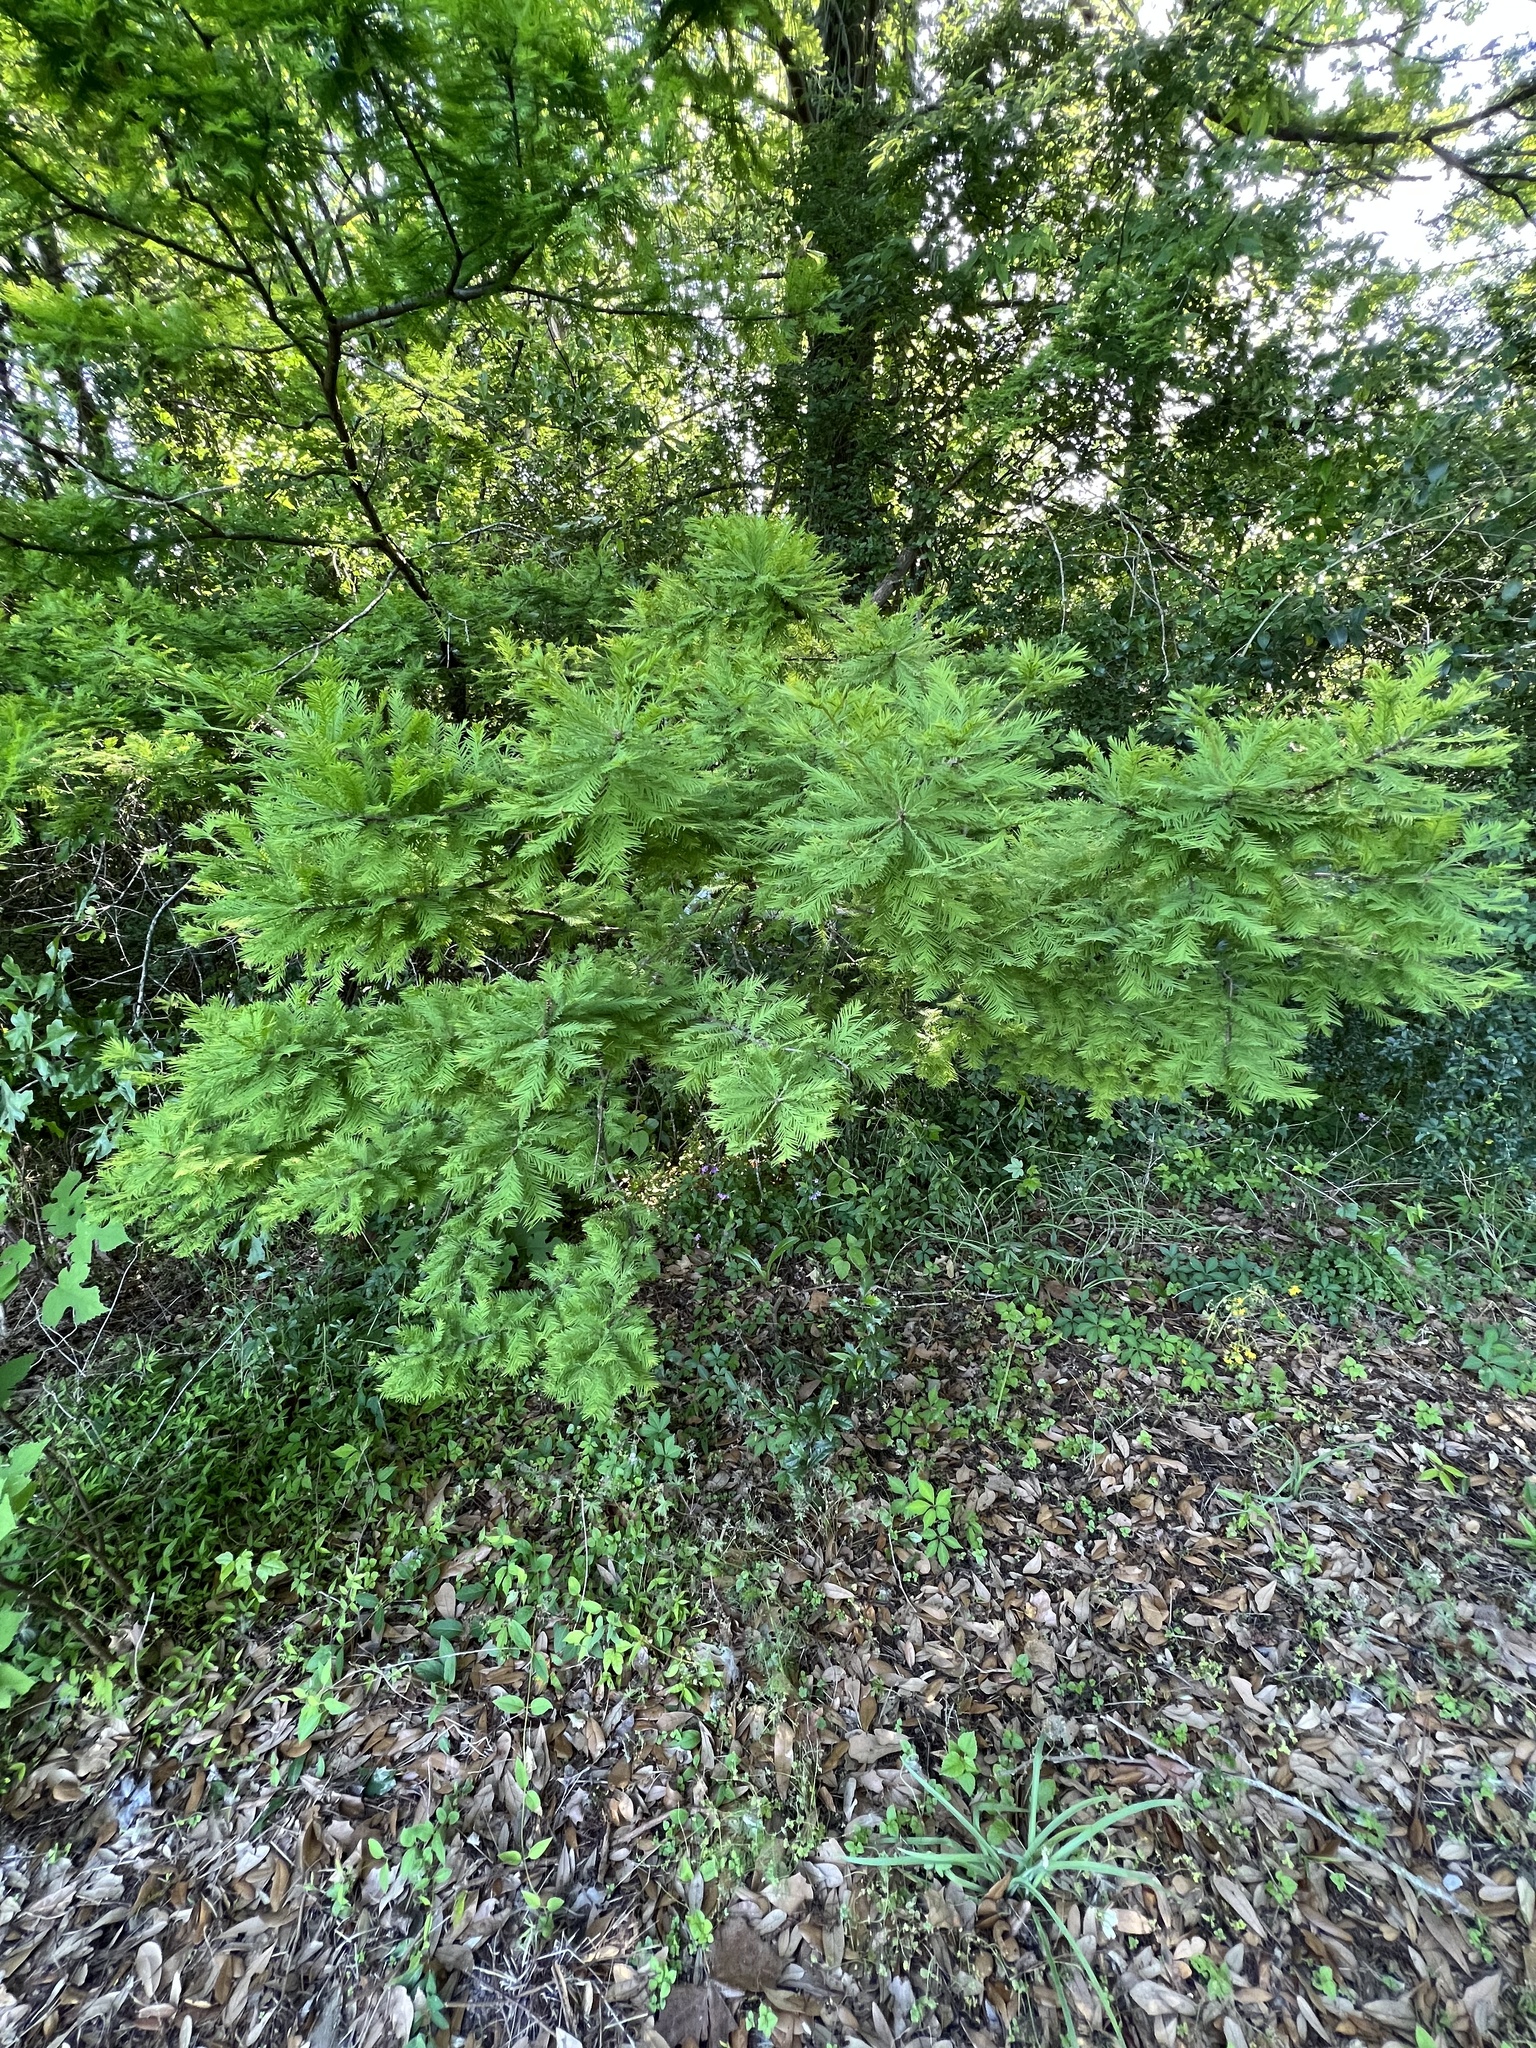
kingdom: Plantae
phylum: Tracheophyta
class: Pinopsida
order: Pinales
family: Cupressaceae
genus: Taxodium
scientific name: Taxodium distichum
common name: Bald cypress
